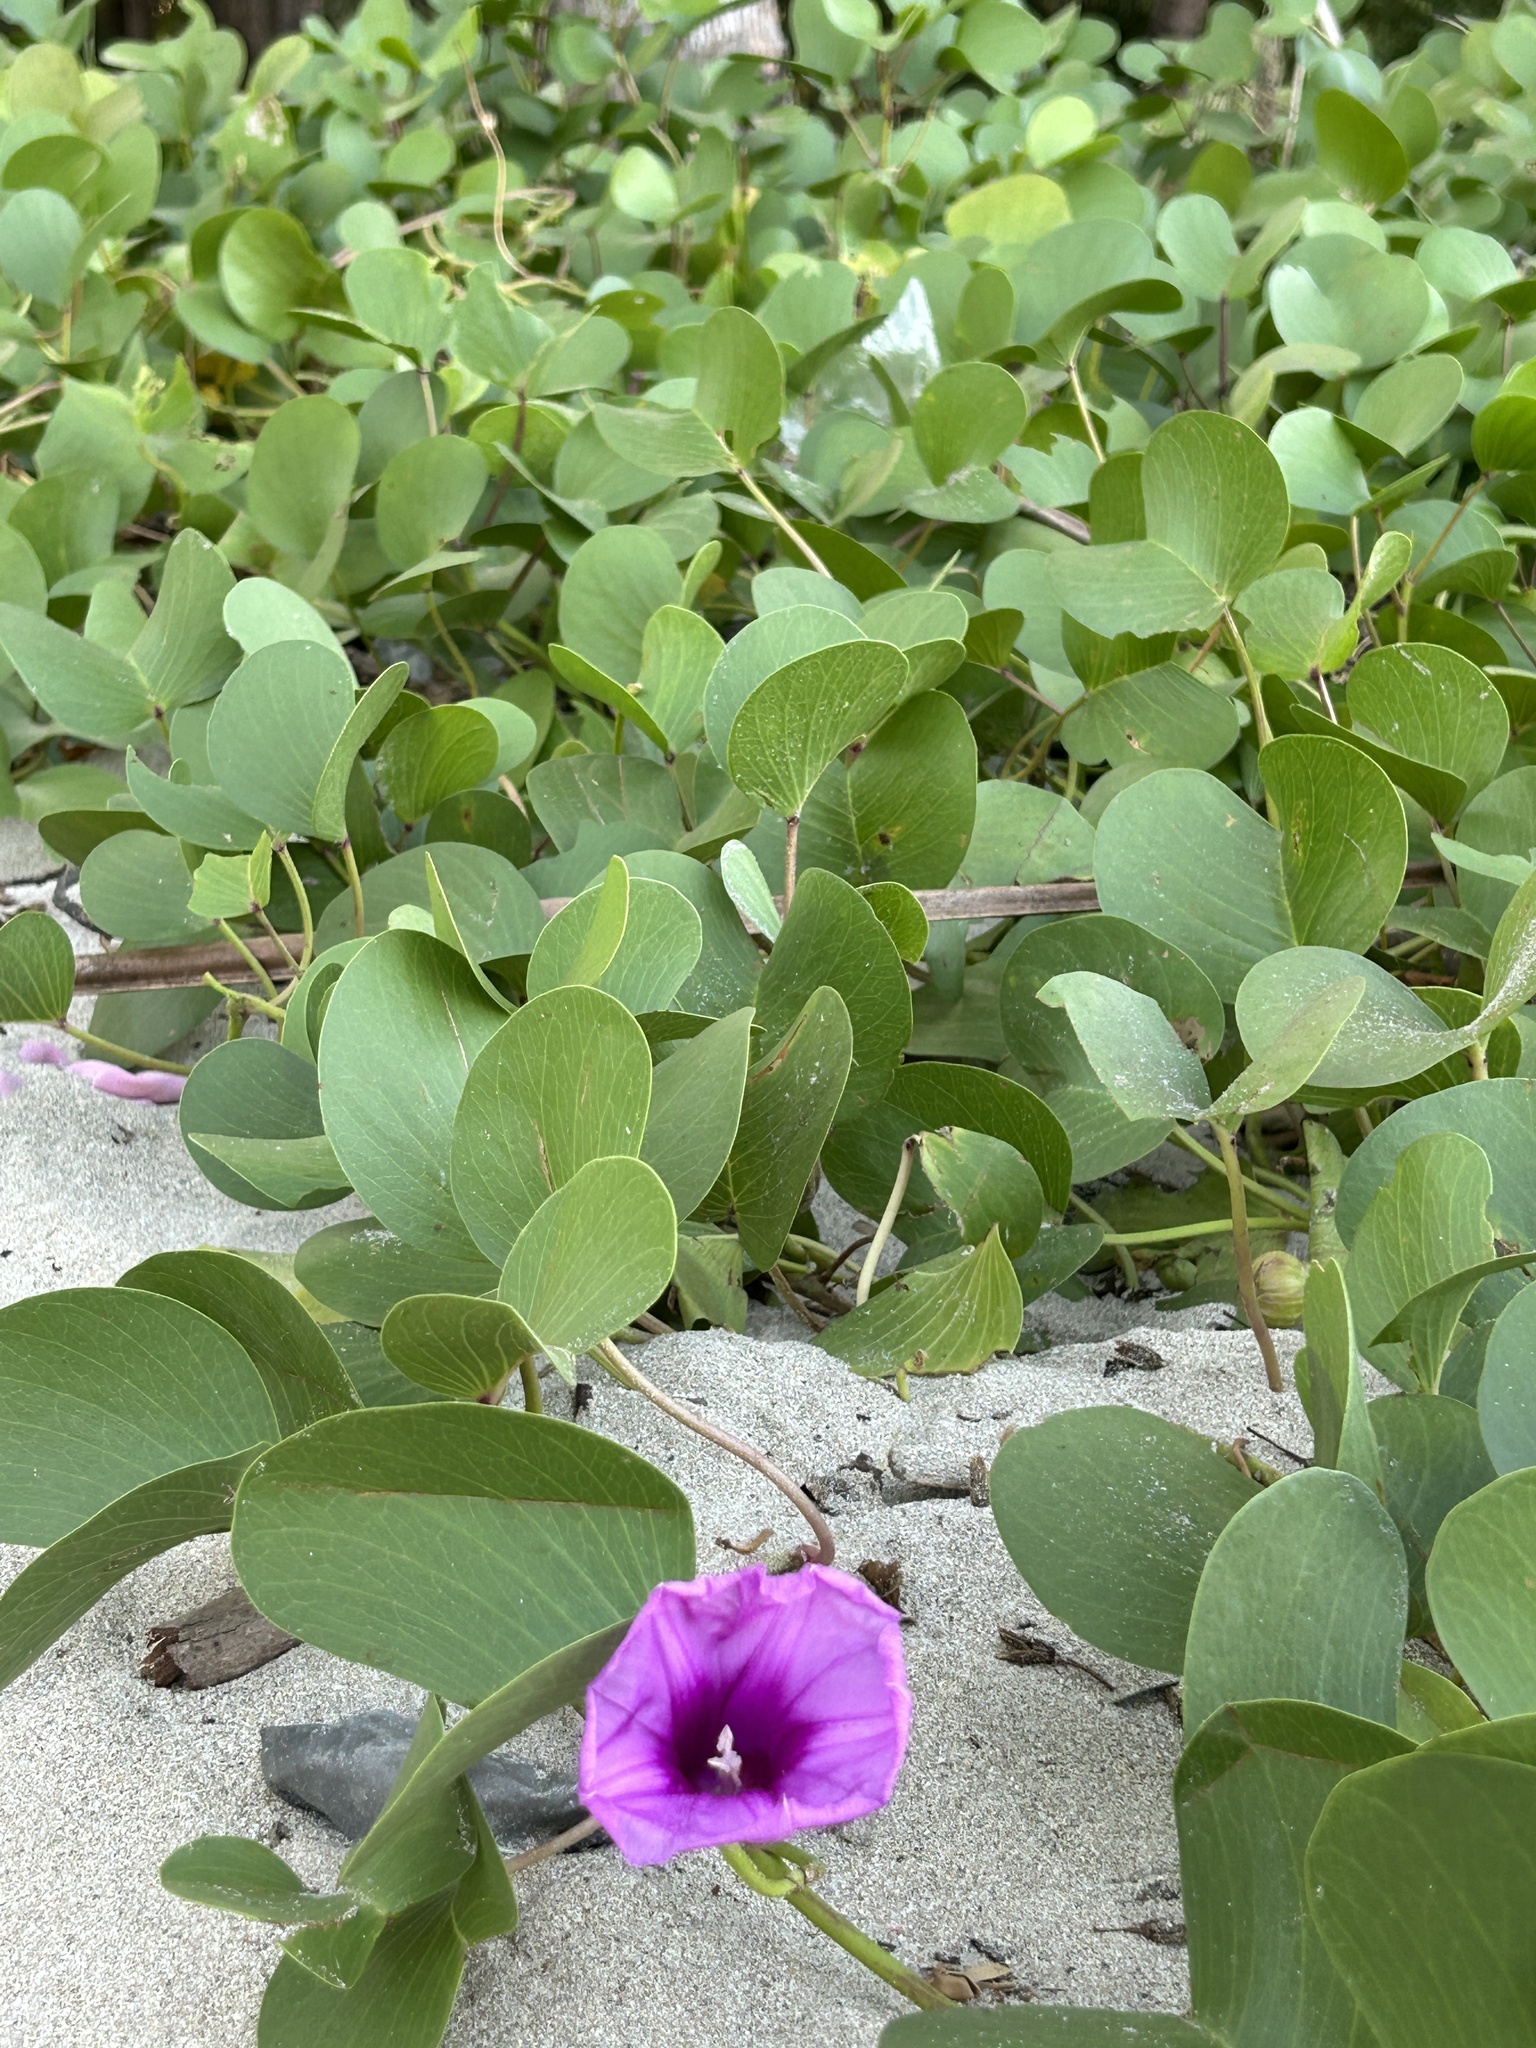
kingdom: Plantae
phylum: Tracheophyta
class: Magnoliopsida
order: Solanales
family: Convolvulaceae
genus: Ipomoea
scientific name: Ipomoea pes-caprae
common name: Beach morning glory
